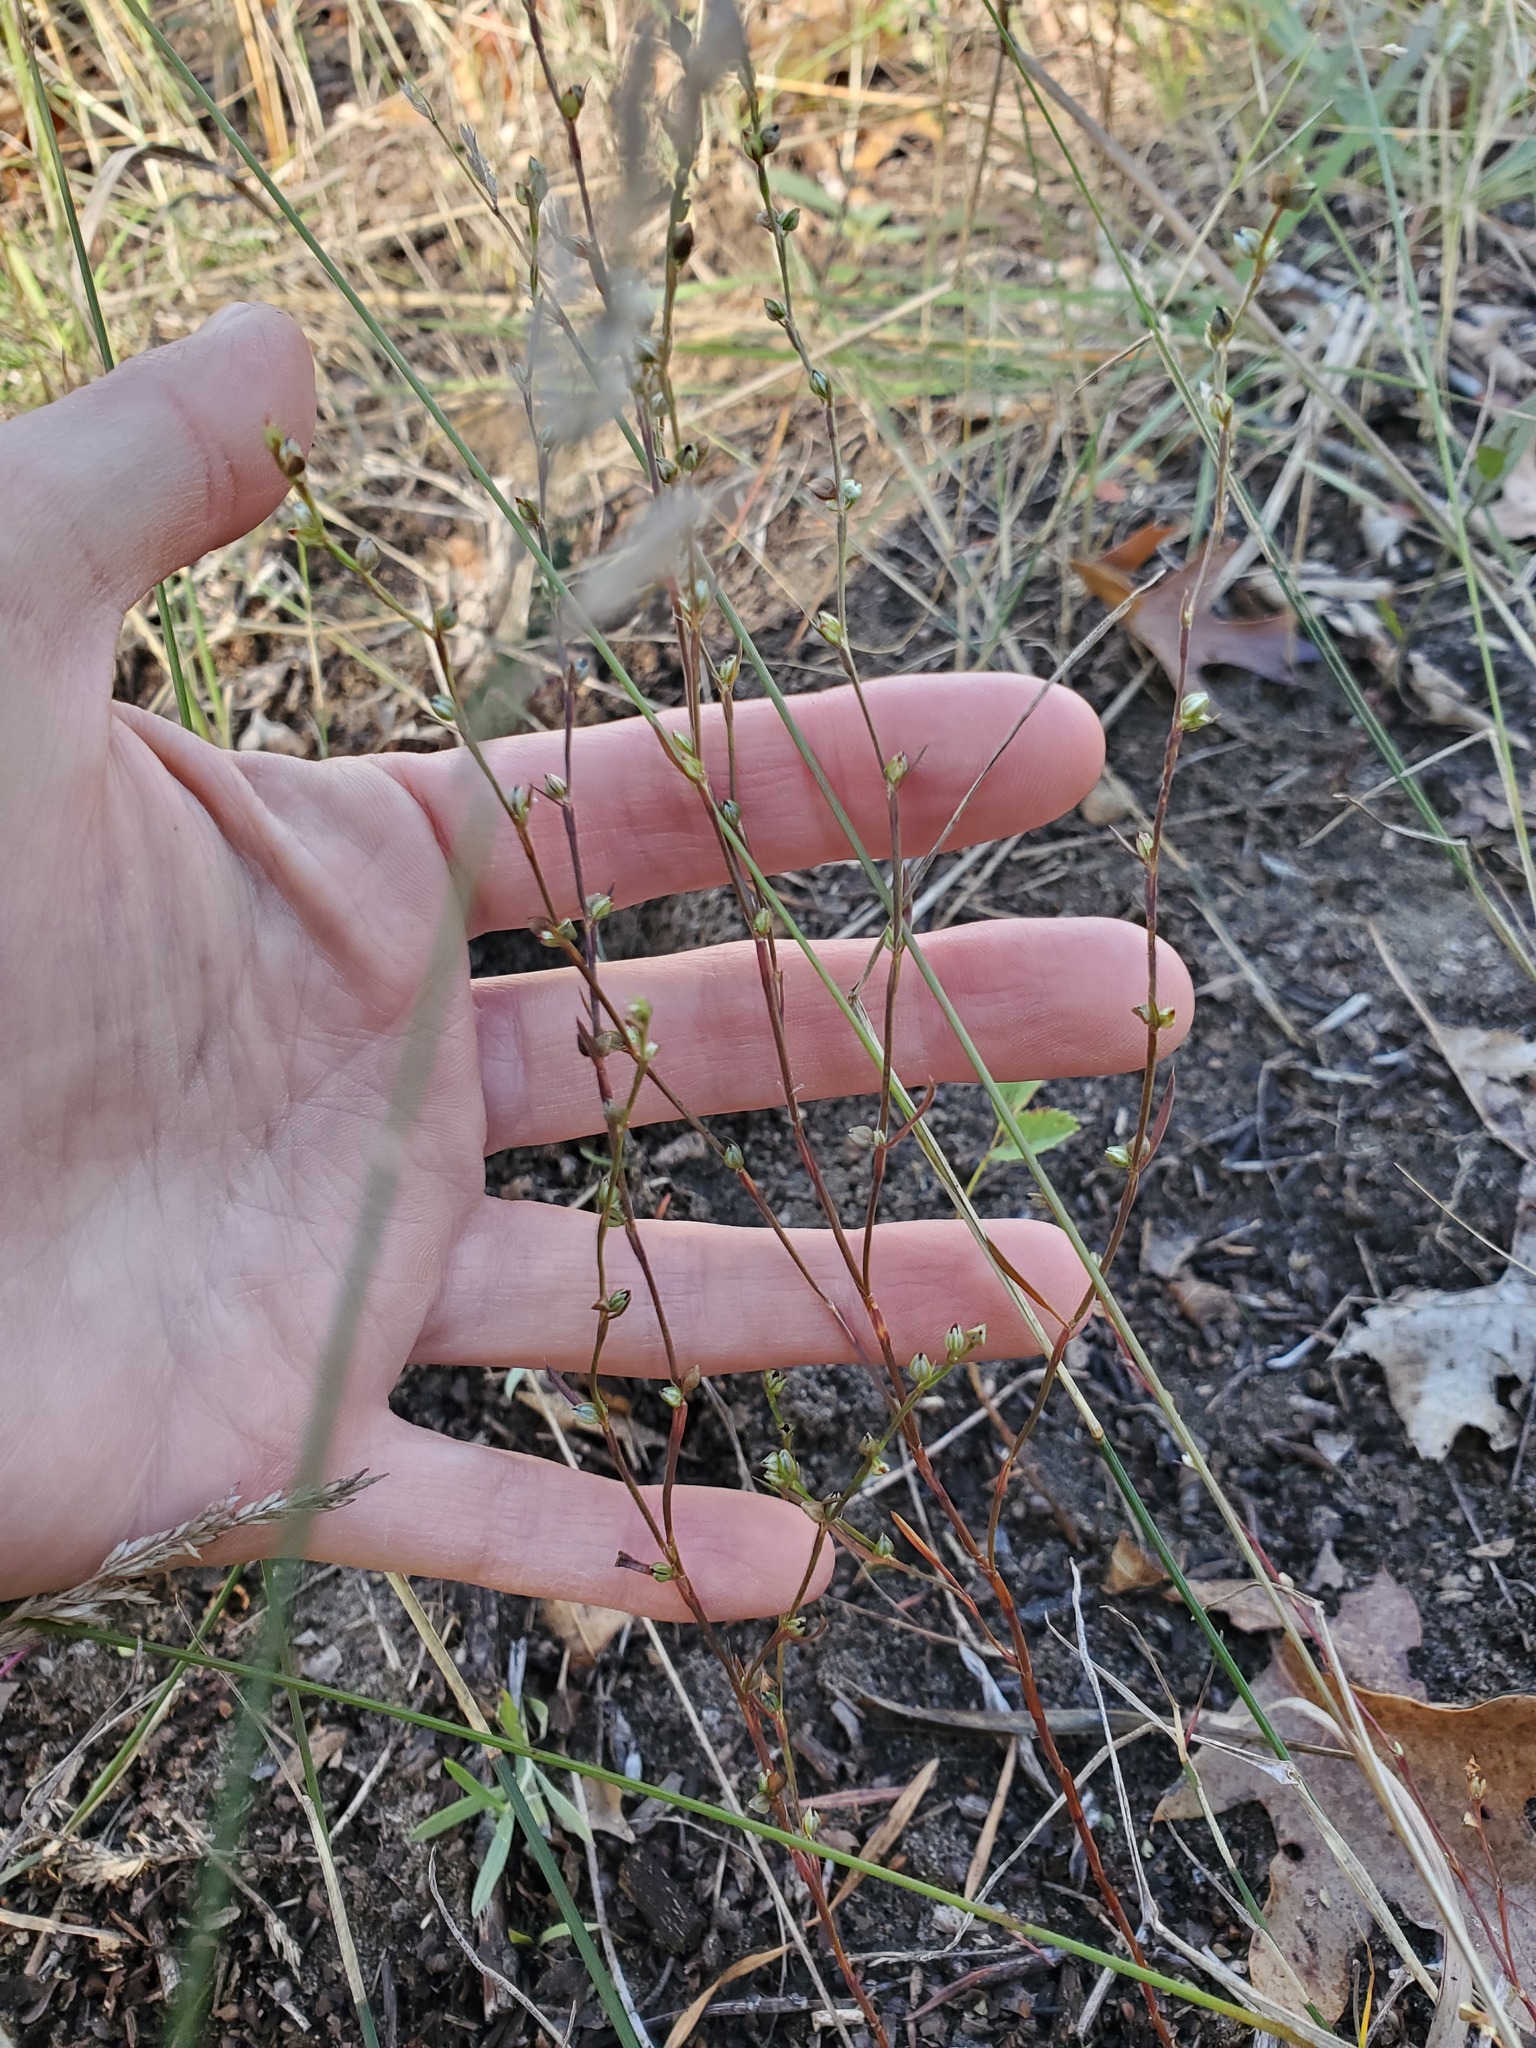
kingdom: Plantae
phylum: Tracheophyta
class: Magnoliopsida
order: Caryophyllales
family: Polygonaceae
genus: Polygonum
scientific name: Polygonum tenue
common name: Pleat-leaved knotweed
